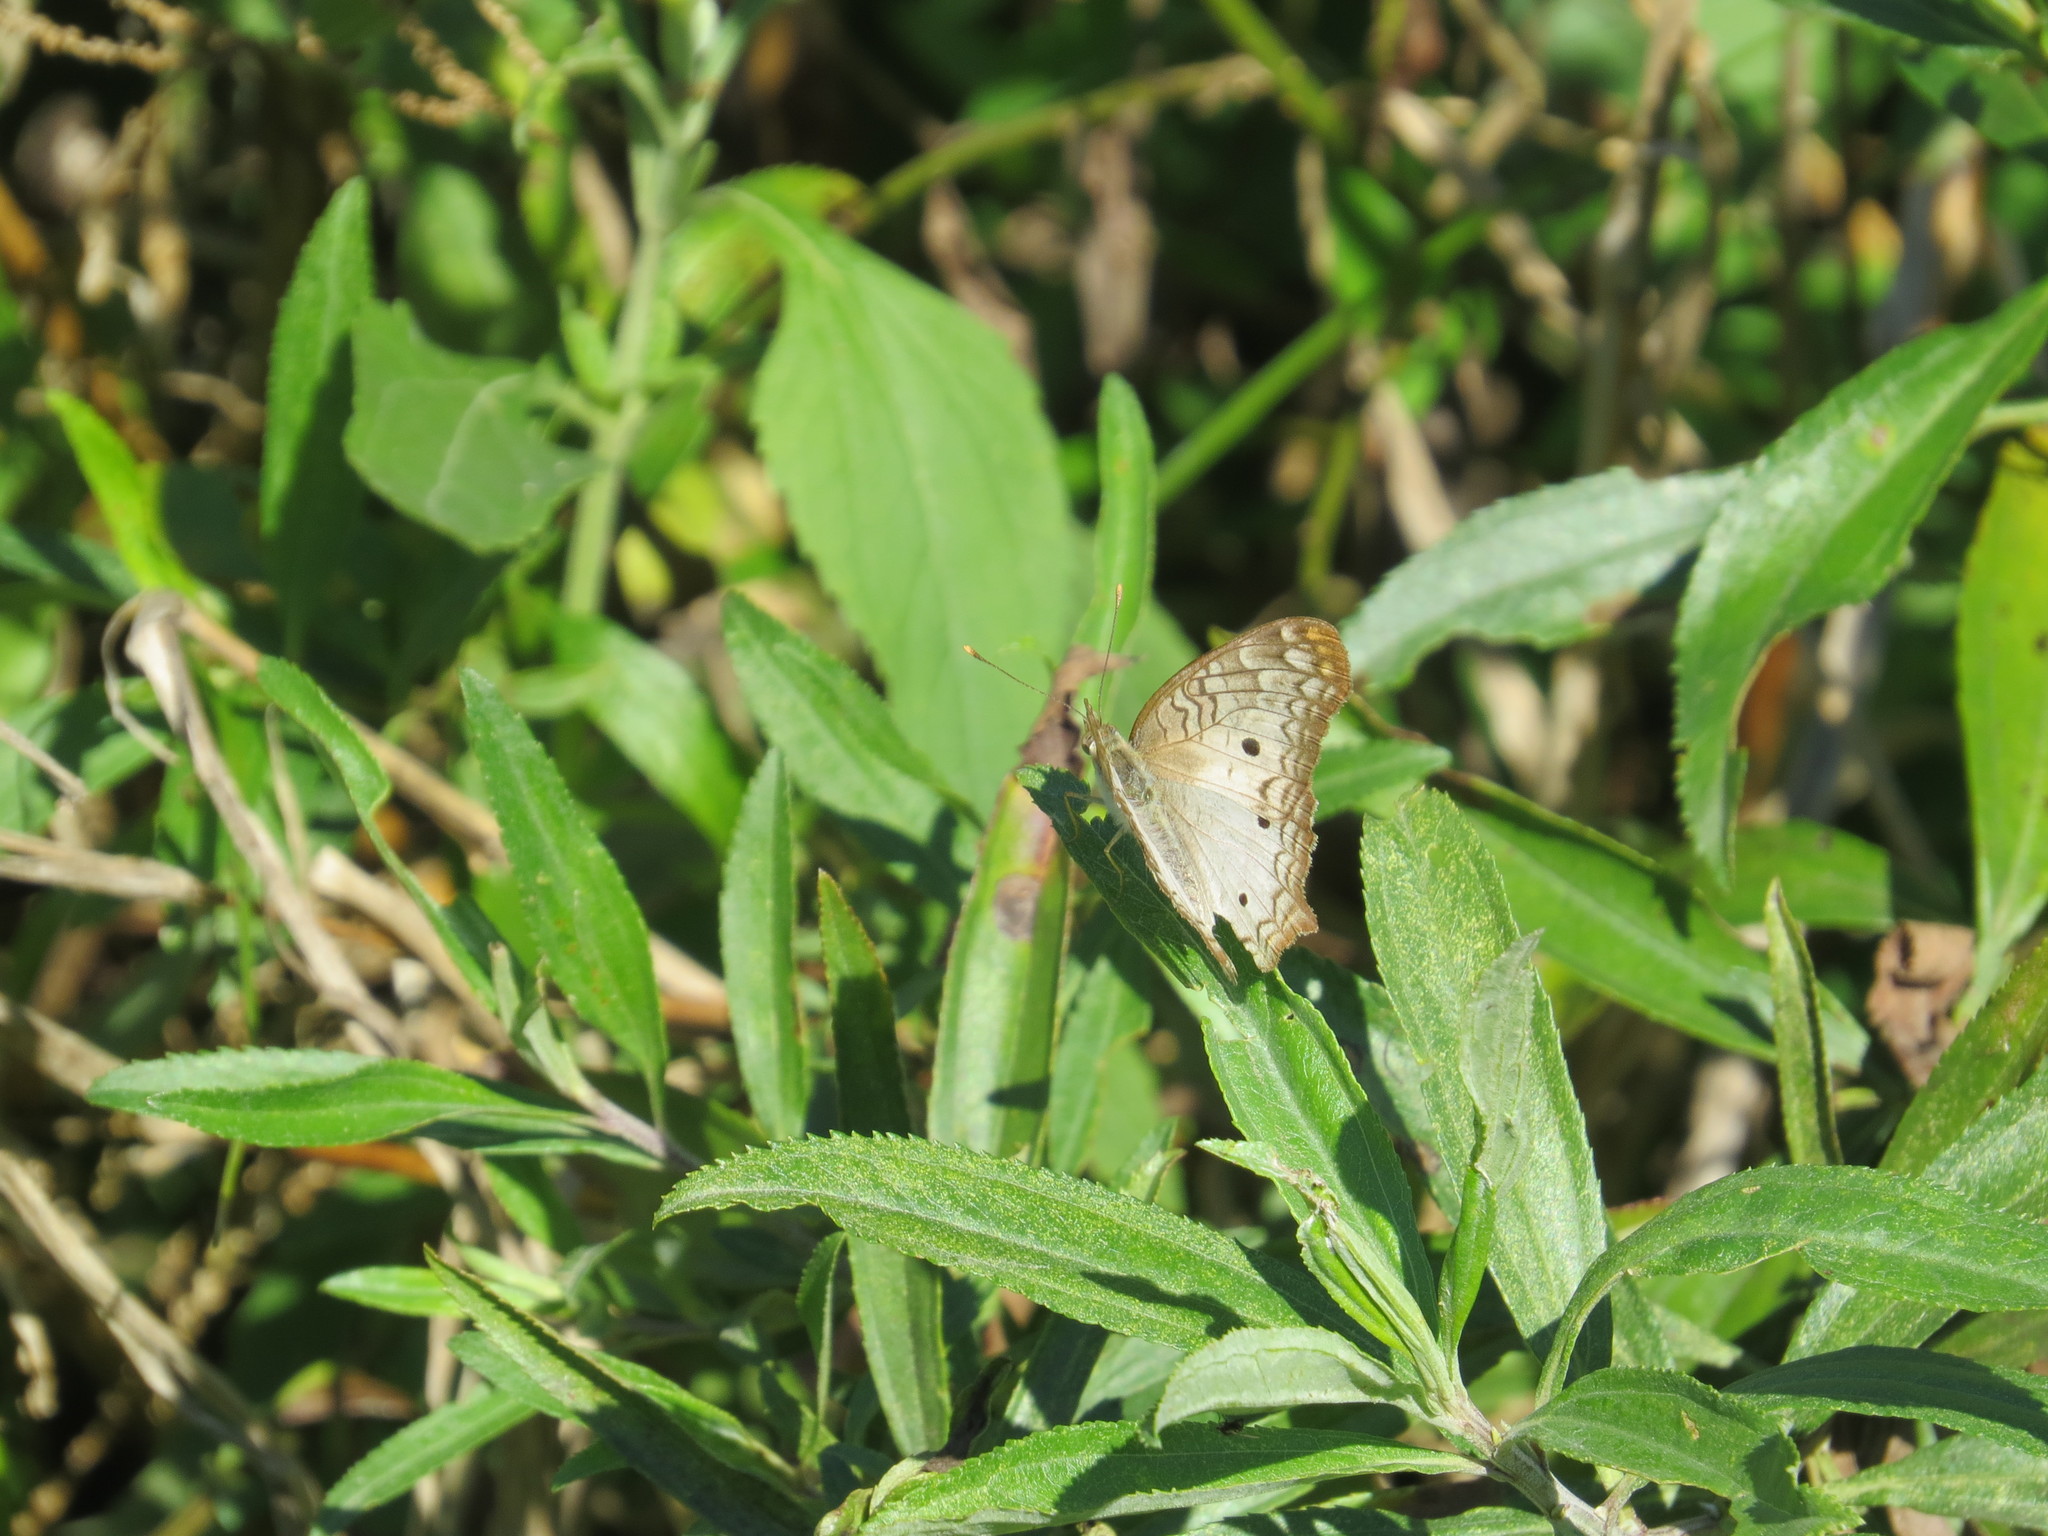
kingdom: Animalia
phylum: Arthropoda
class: Insecta
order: Lepidoptera
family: Nymphalidae
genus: Anartia
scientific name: Anartia jatrophae
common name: White peacock
